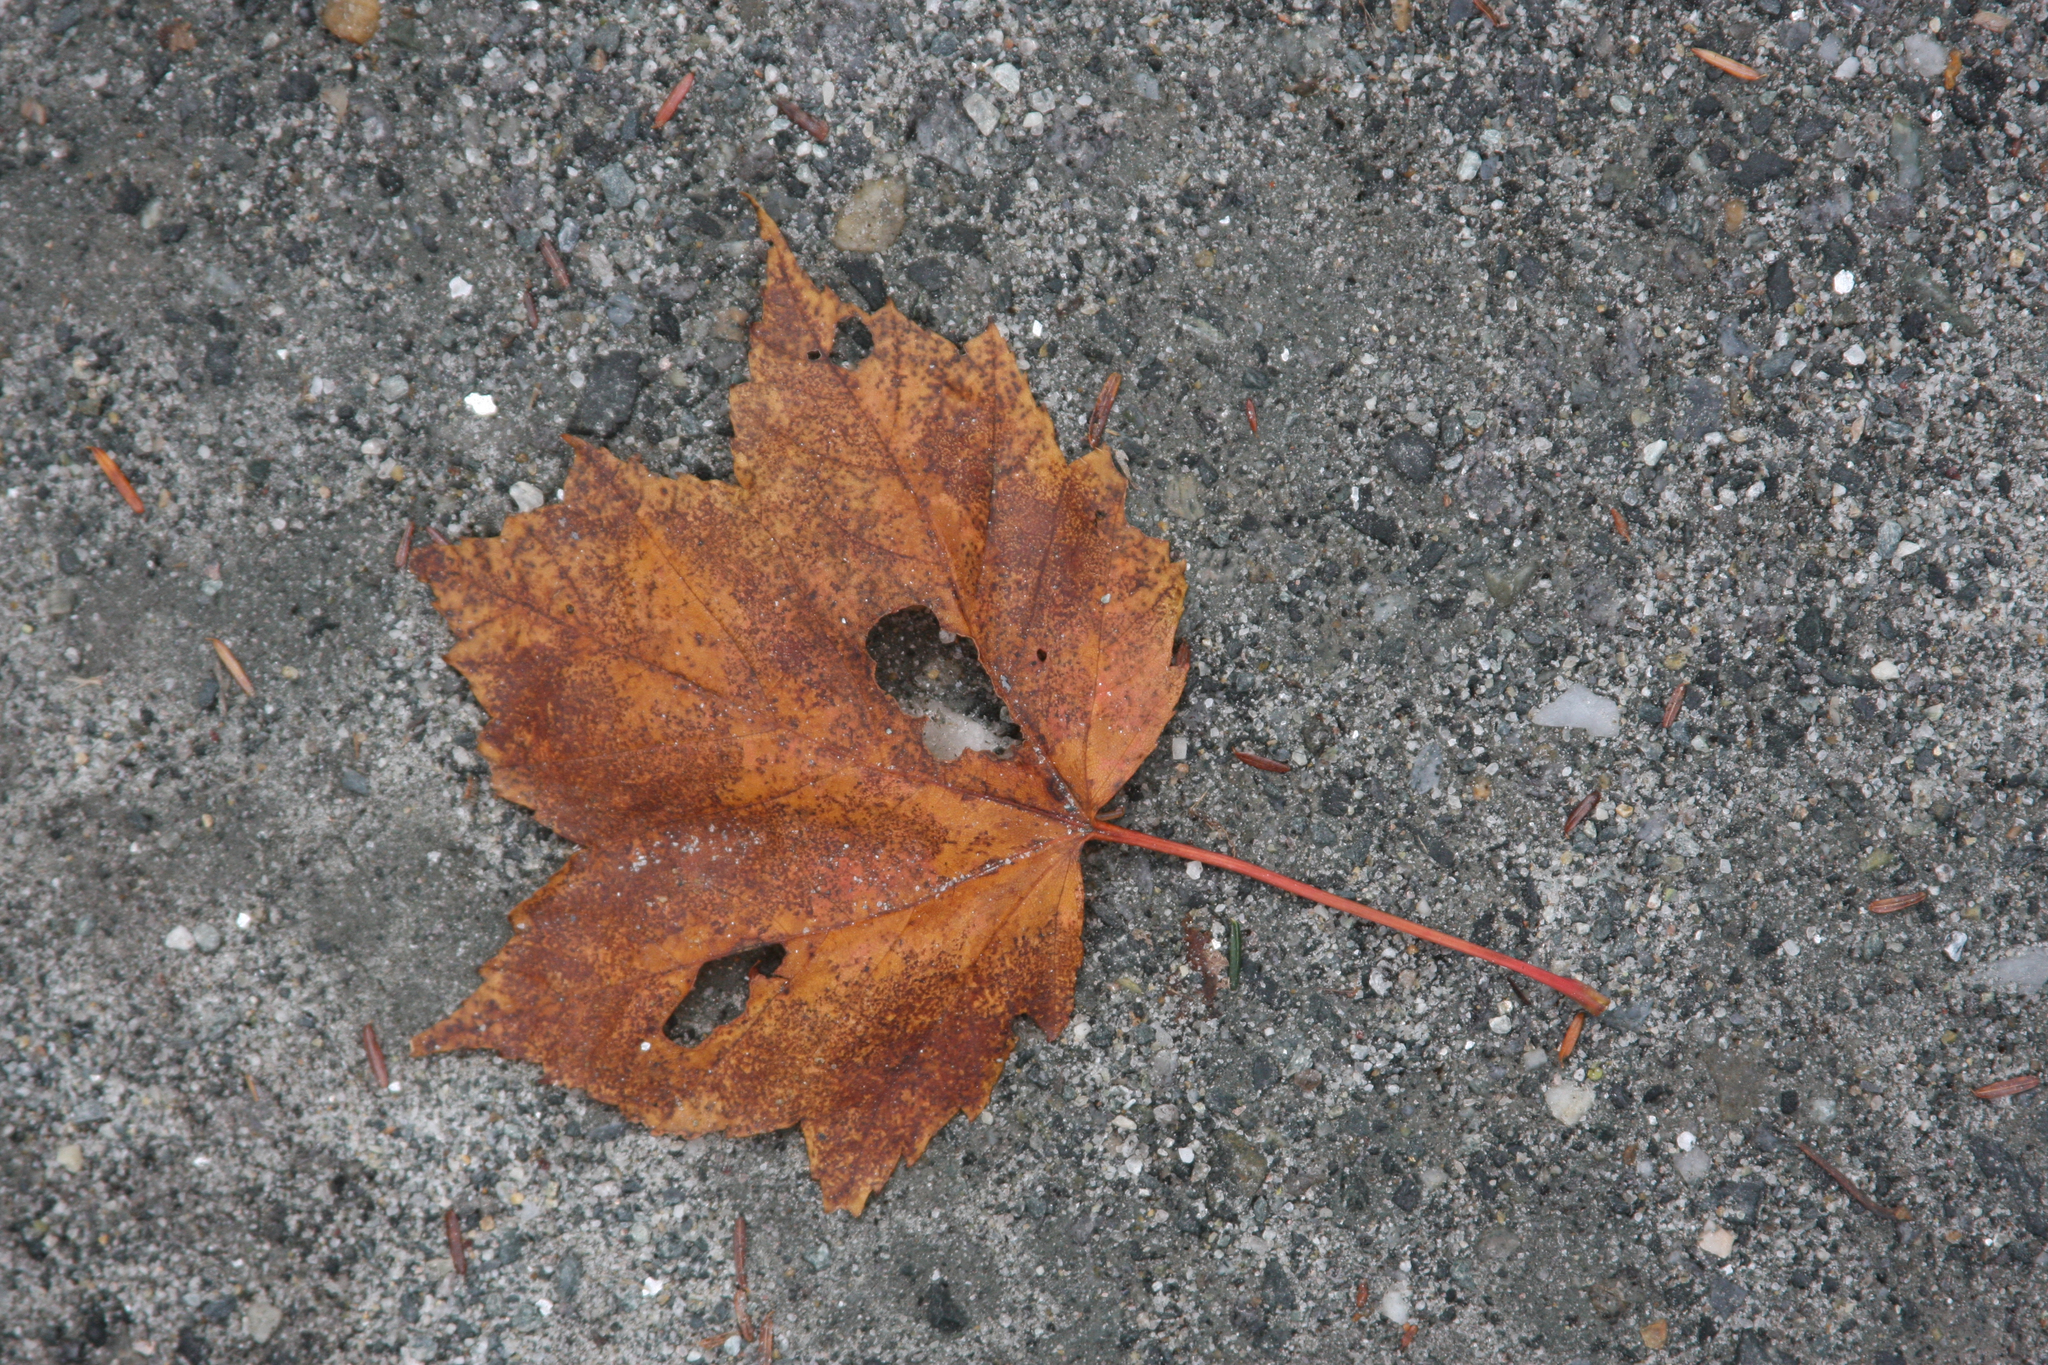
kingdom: Plantae
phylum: Tracheophyta
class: Magnoliopsida
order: Sapindales
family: Sapindaceae
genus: Acer
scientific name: Acer rubrum
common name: Red maple
